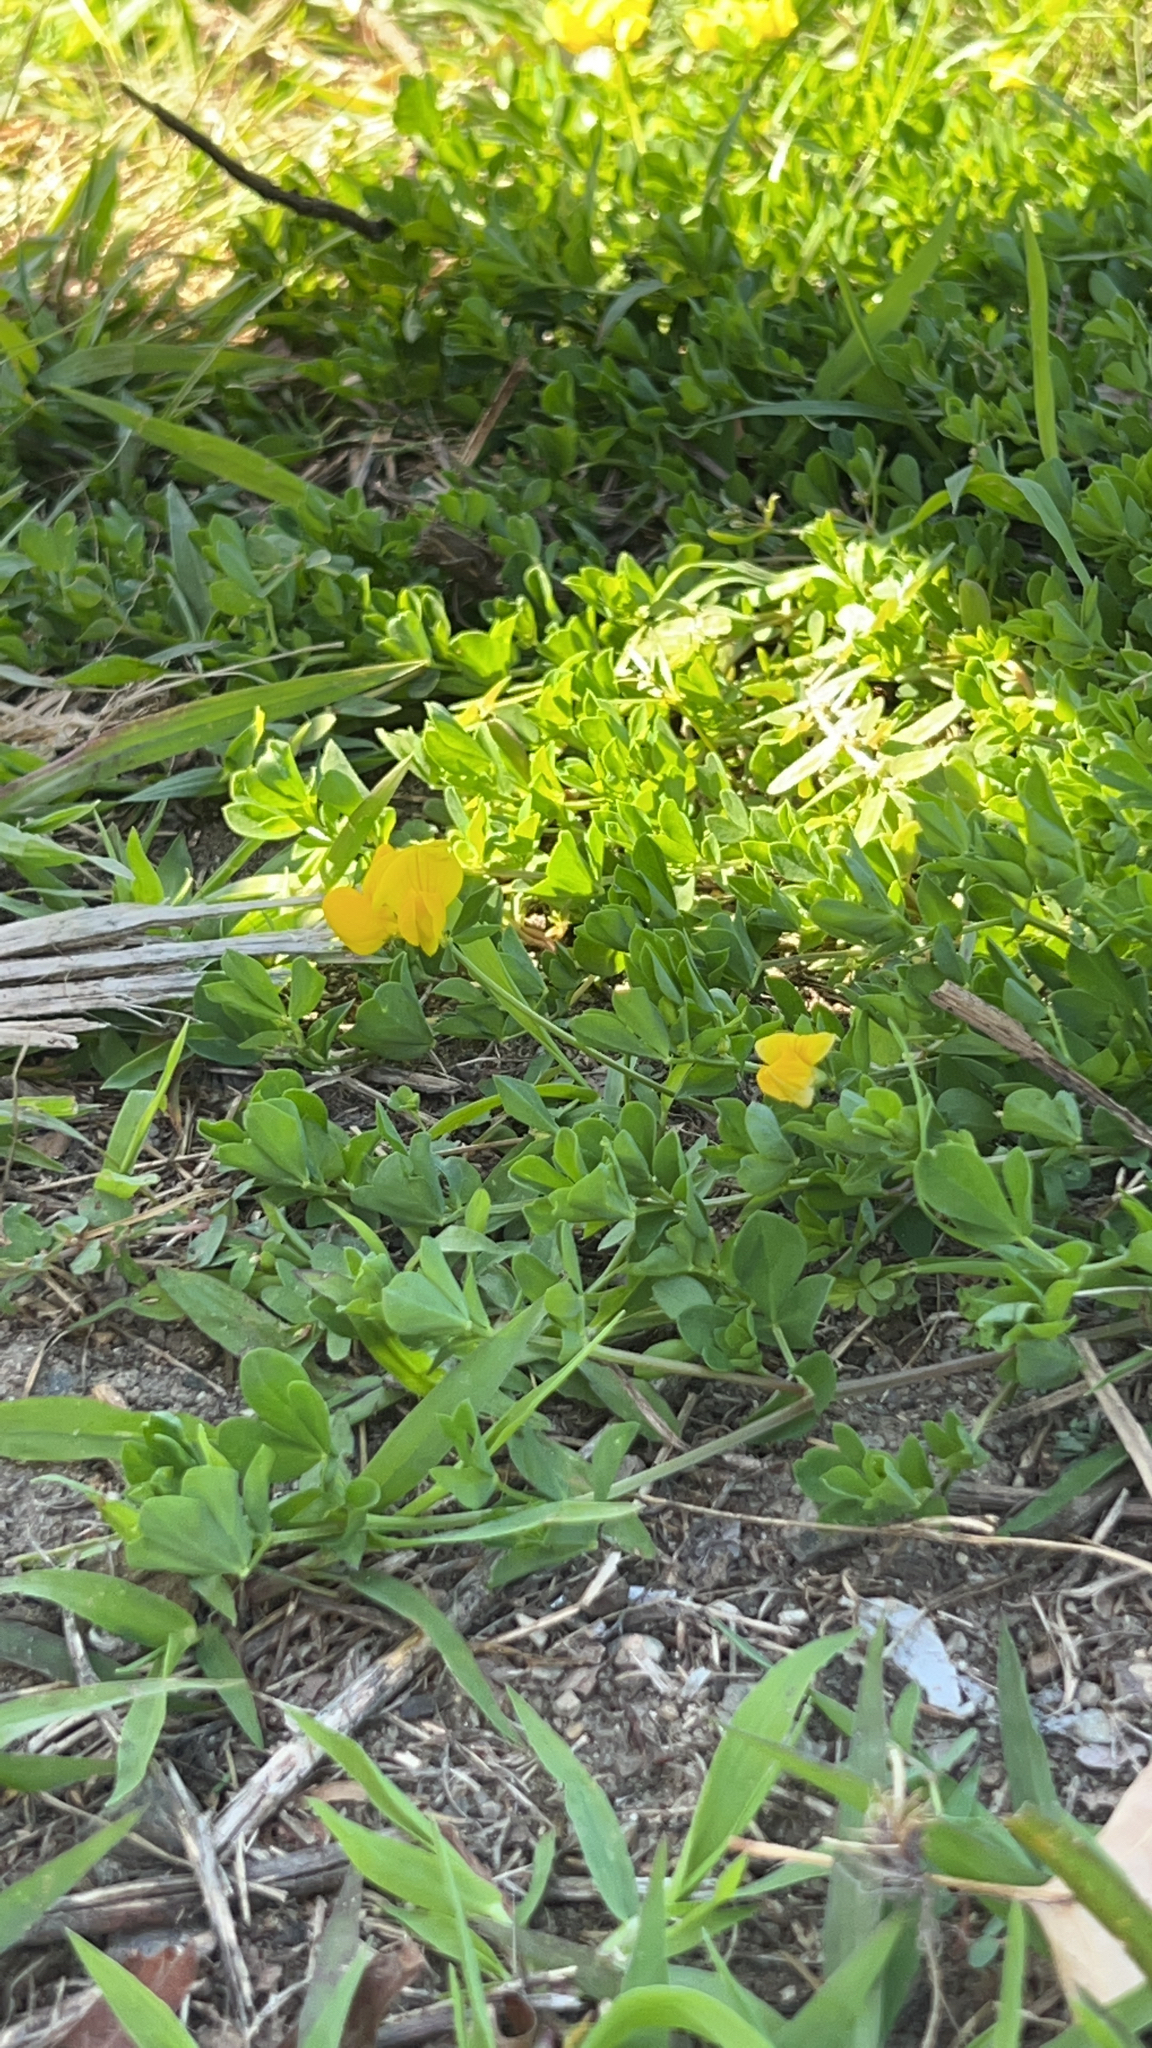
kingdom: Plantae
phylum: Tracheophyta
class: Magnoliopsida
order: Fabales
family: Fabaceae
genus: Lotus
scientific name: Lotus corniculatus
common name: Common bird's-foot-trefoil
